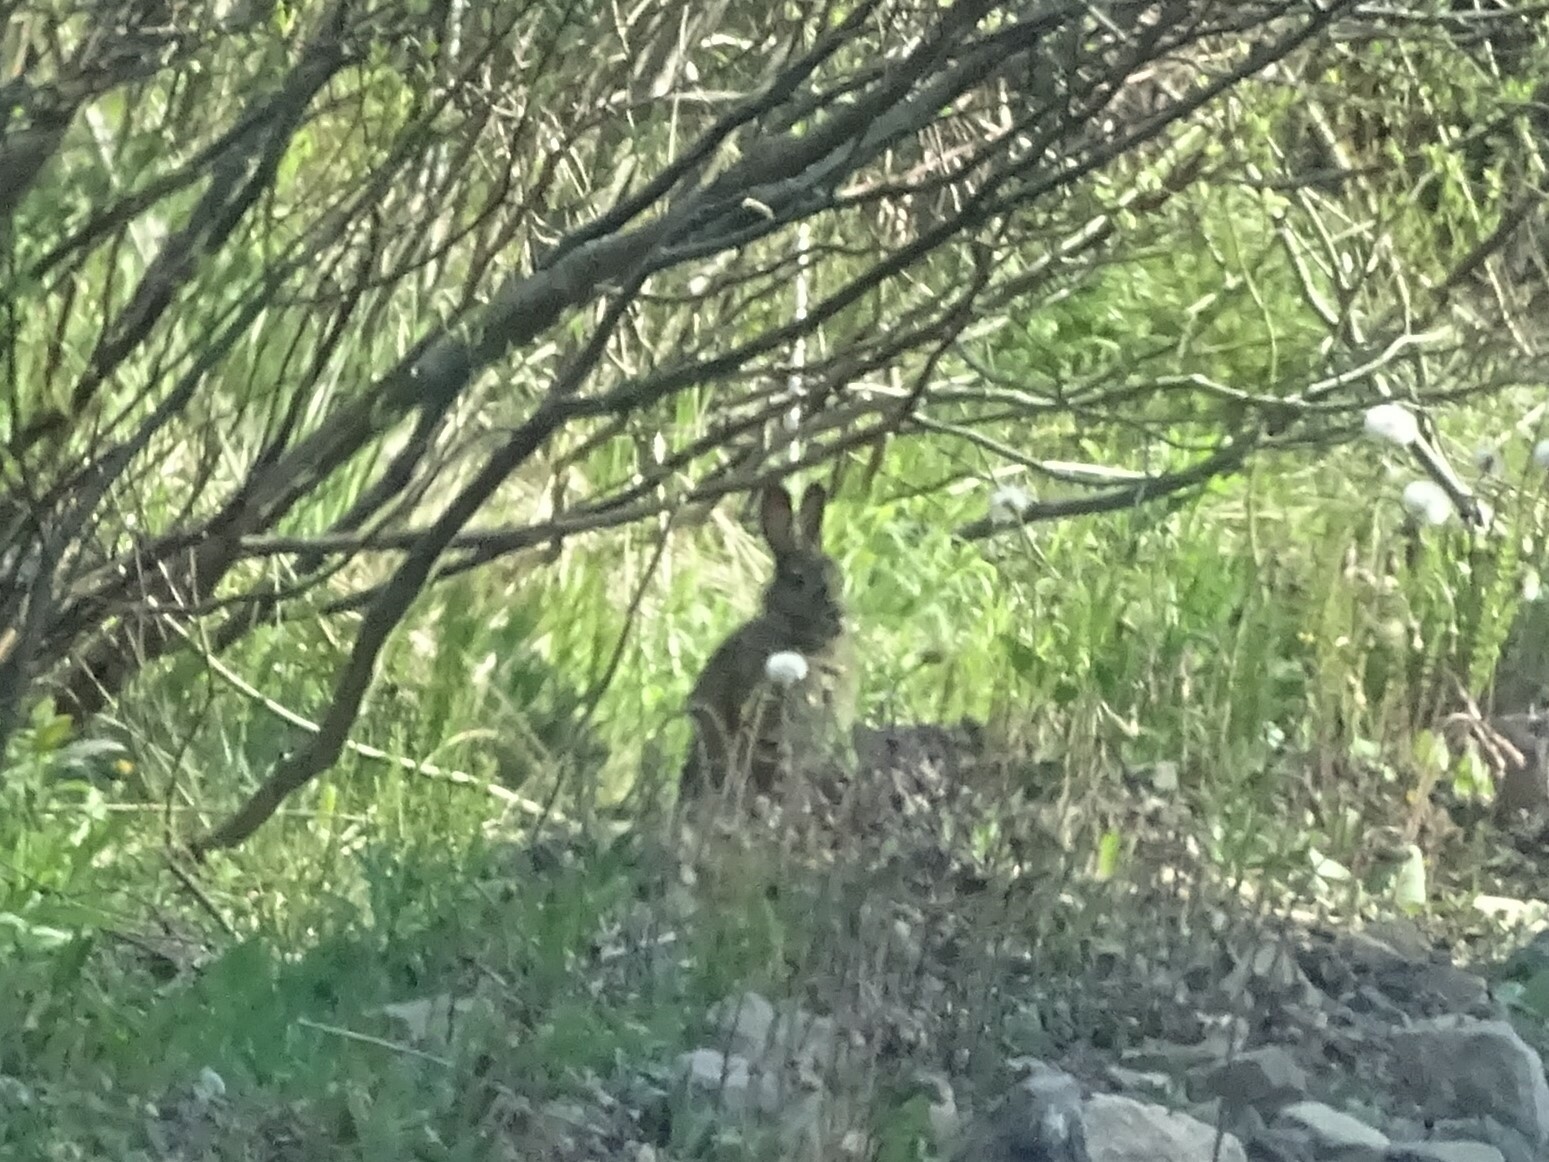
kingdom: Animalia
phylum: Chordata
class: Mammalia
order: Lagomorpha
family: Leporidae
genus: Lepus
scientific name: Lepus americanus
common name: Snowshoe hare
